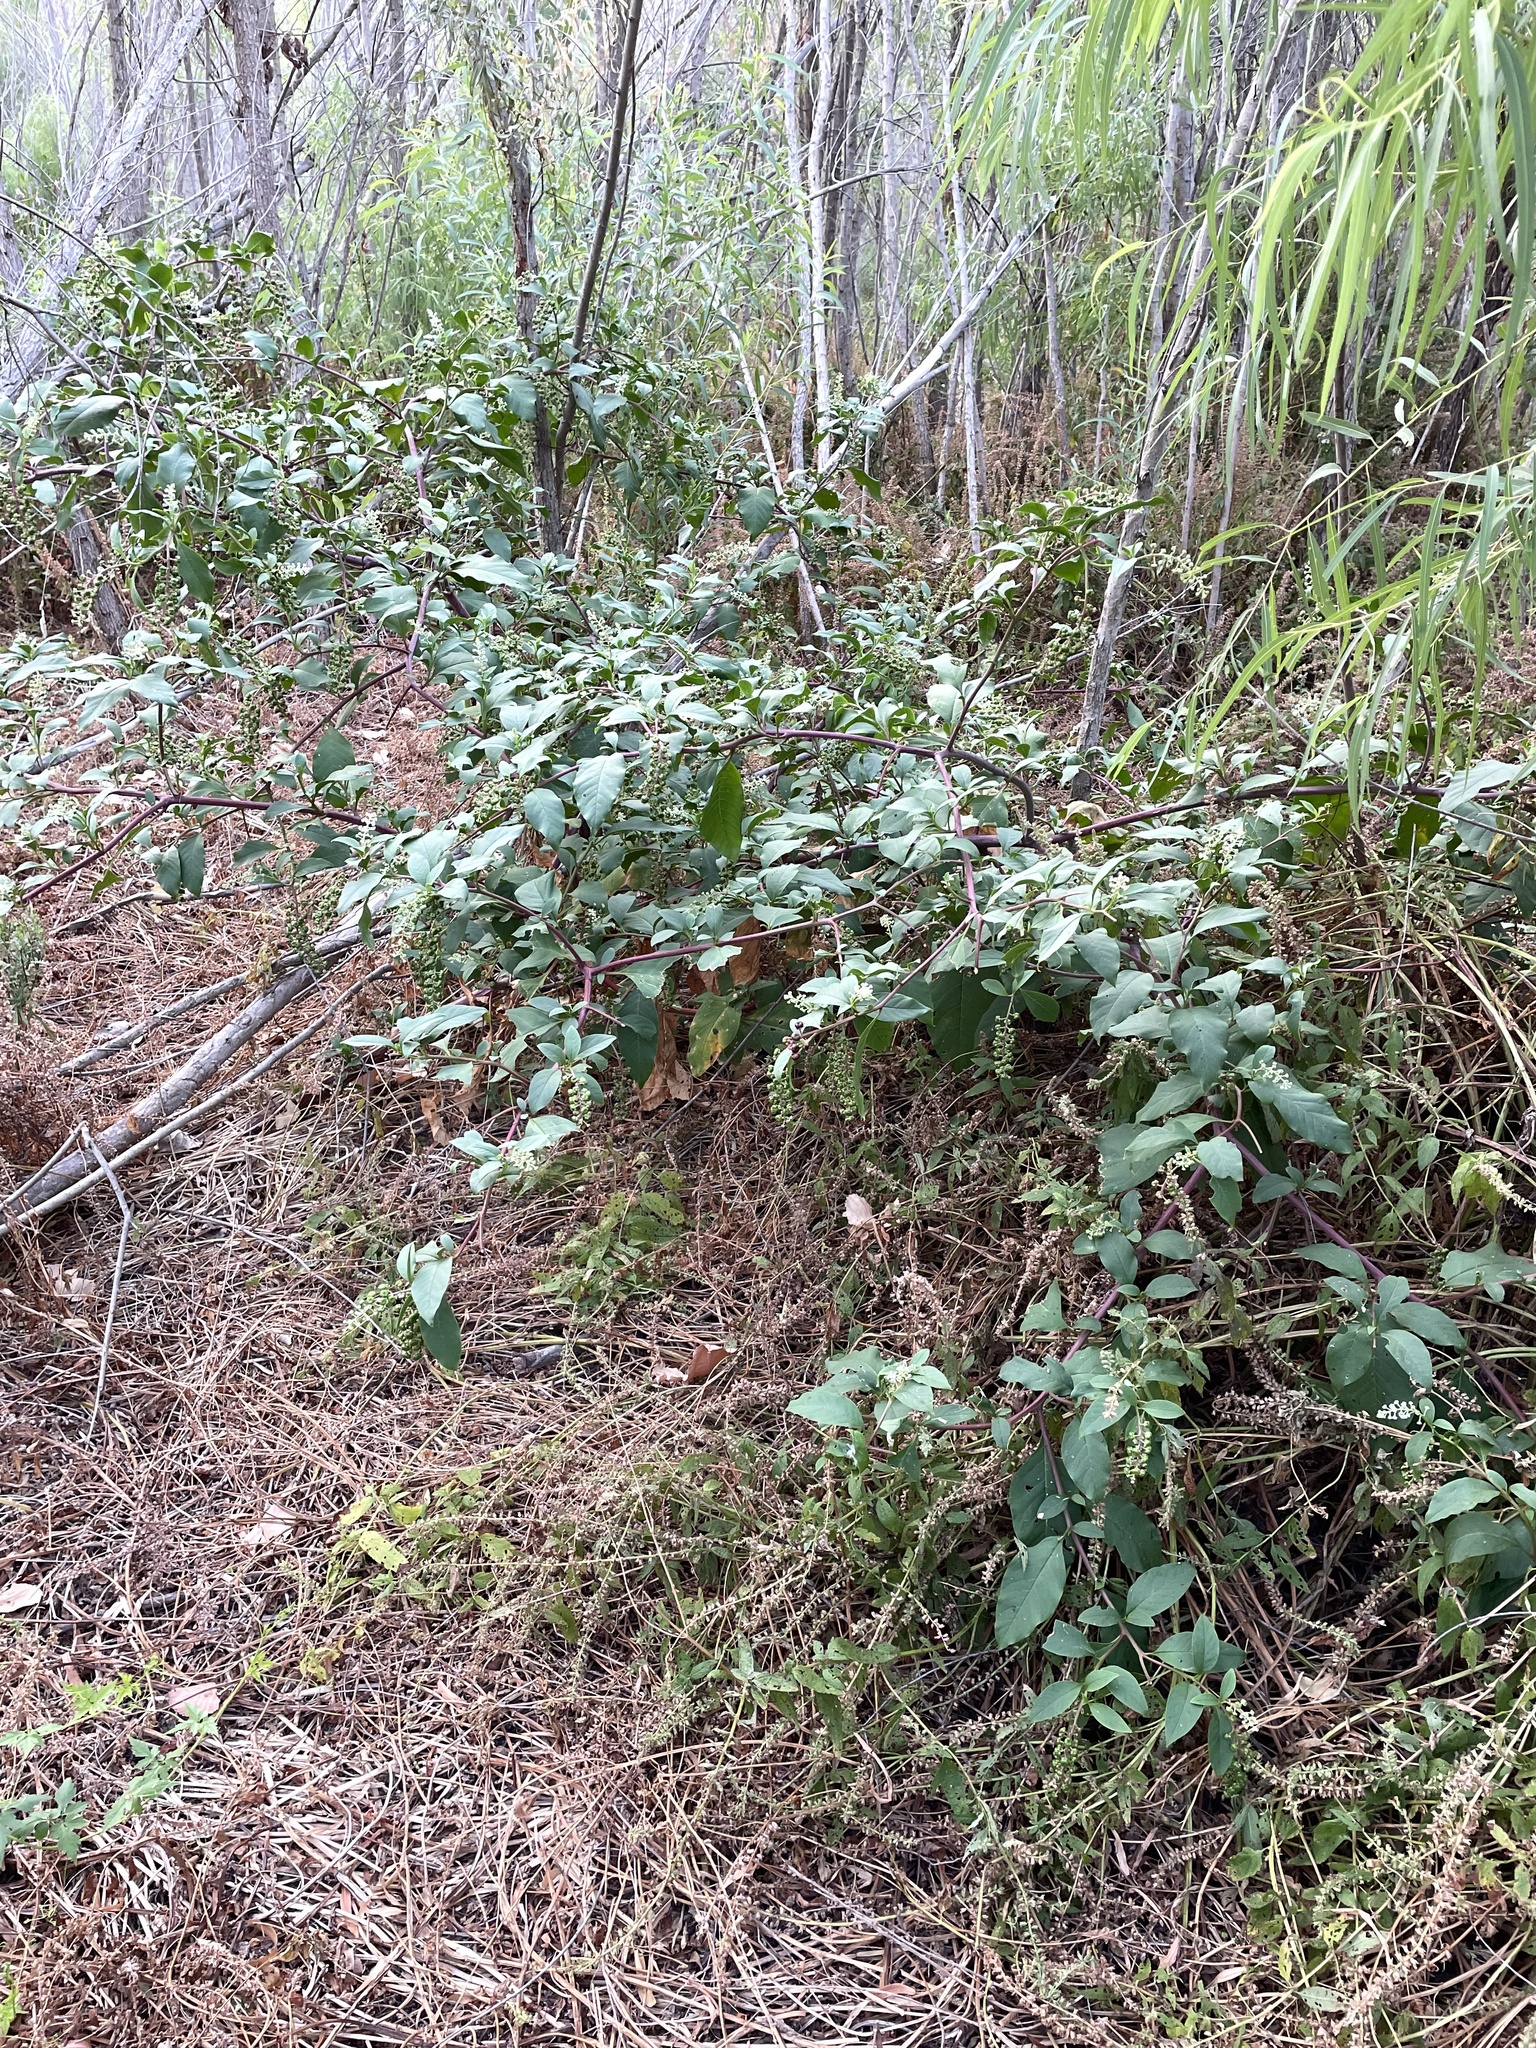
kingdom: Plantae
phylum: Tracheophyta
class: Magnoliopsida
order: Caryophyllales
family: Phytolaccaceae
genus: Phytolacca
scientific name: Phytolacca americana
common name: American pokeweed
